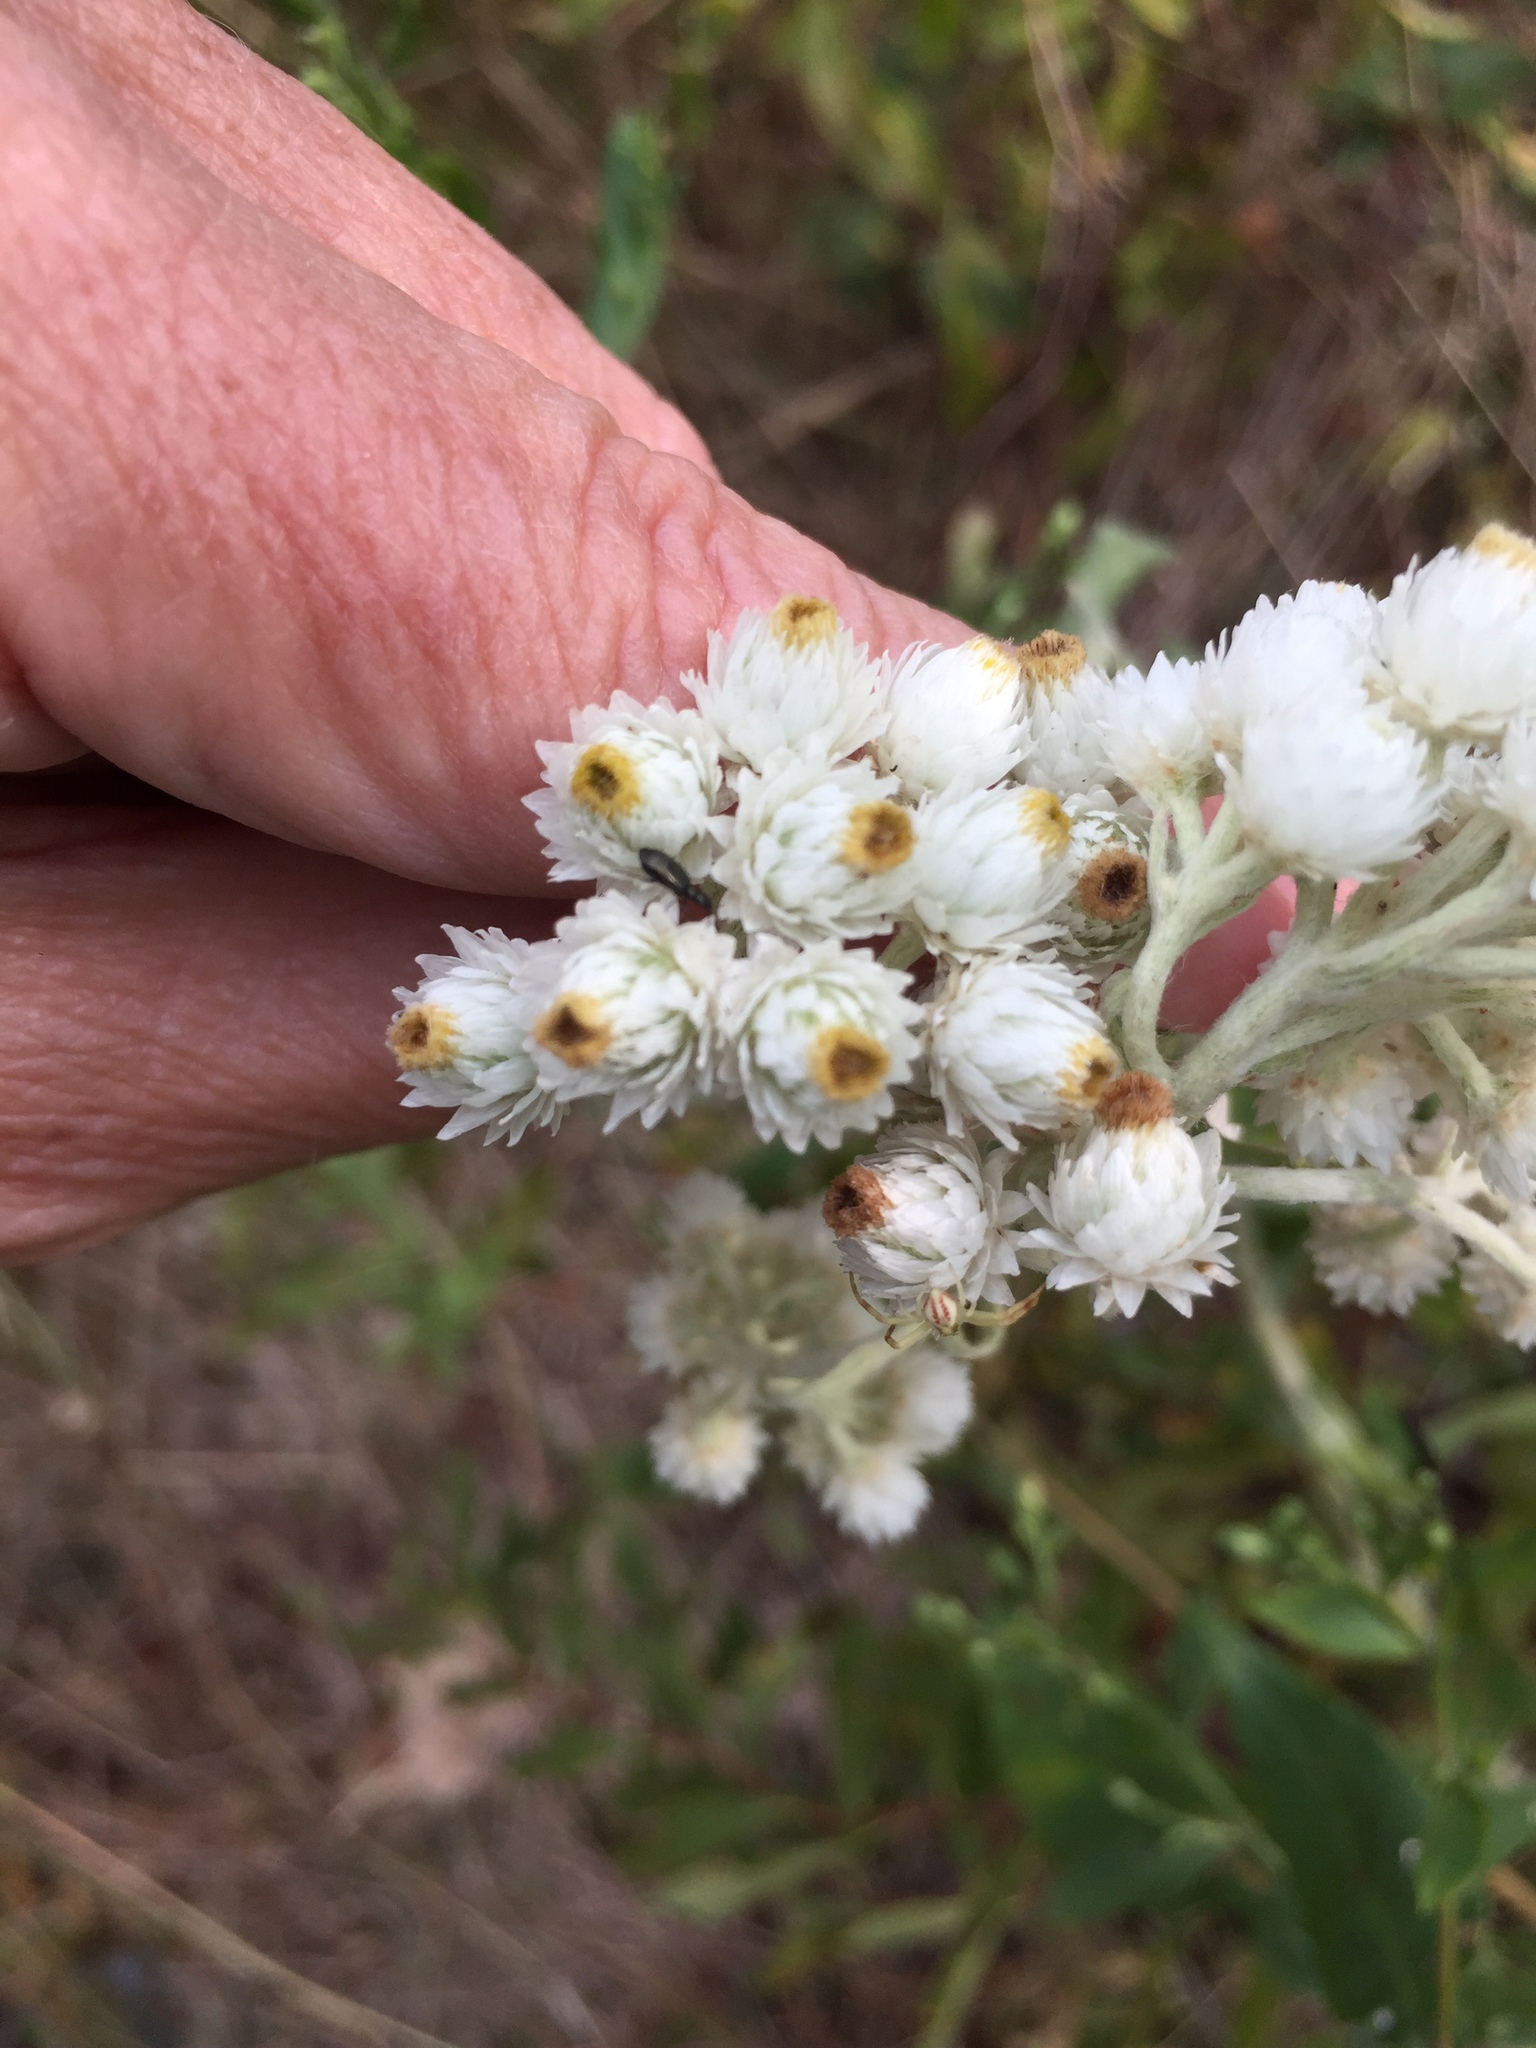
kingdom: Plantae
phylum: Tracheophyta
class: Magnoliopsida
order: Asterales
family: Asteraceae
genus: Anaphalis
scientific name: Anaphalis margaritacea
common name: Pearly everlasting
